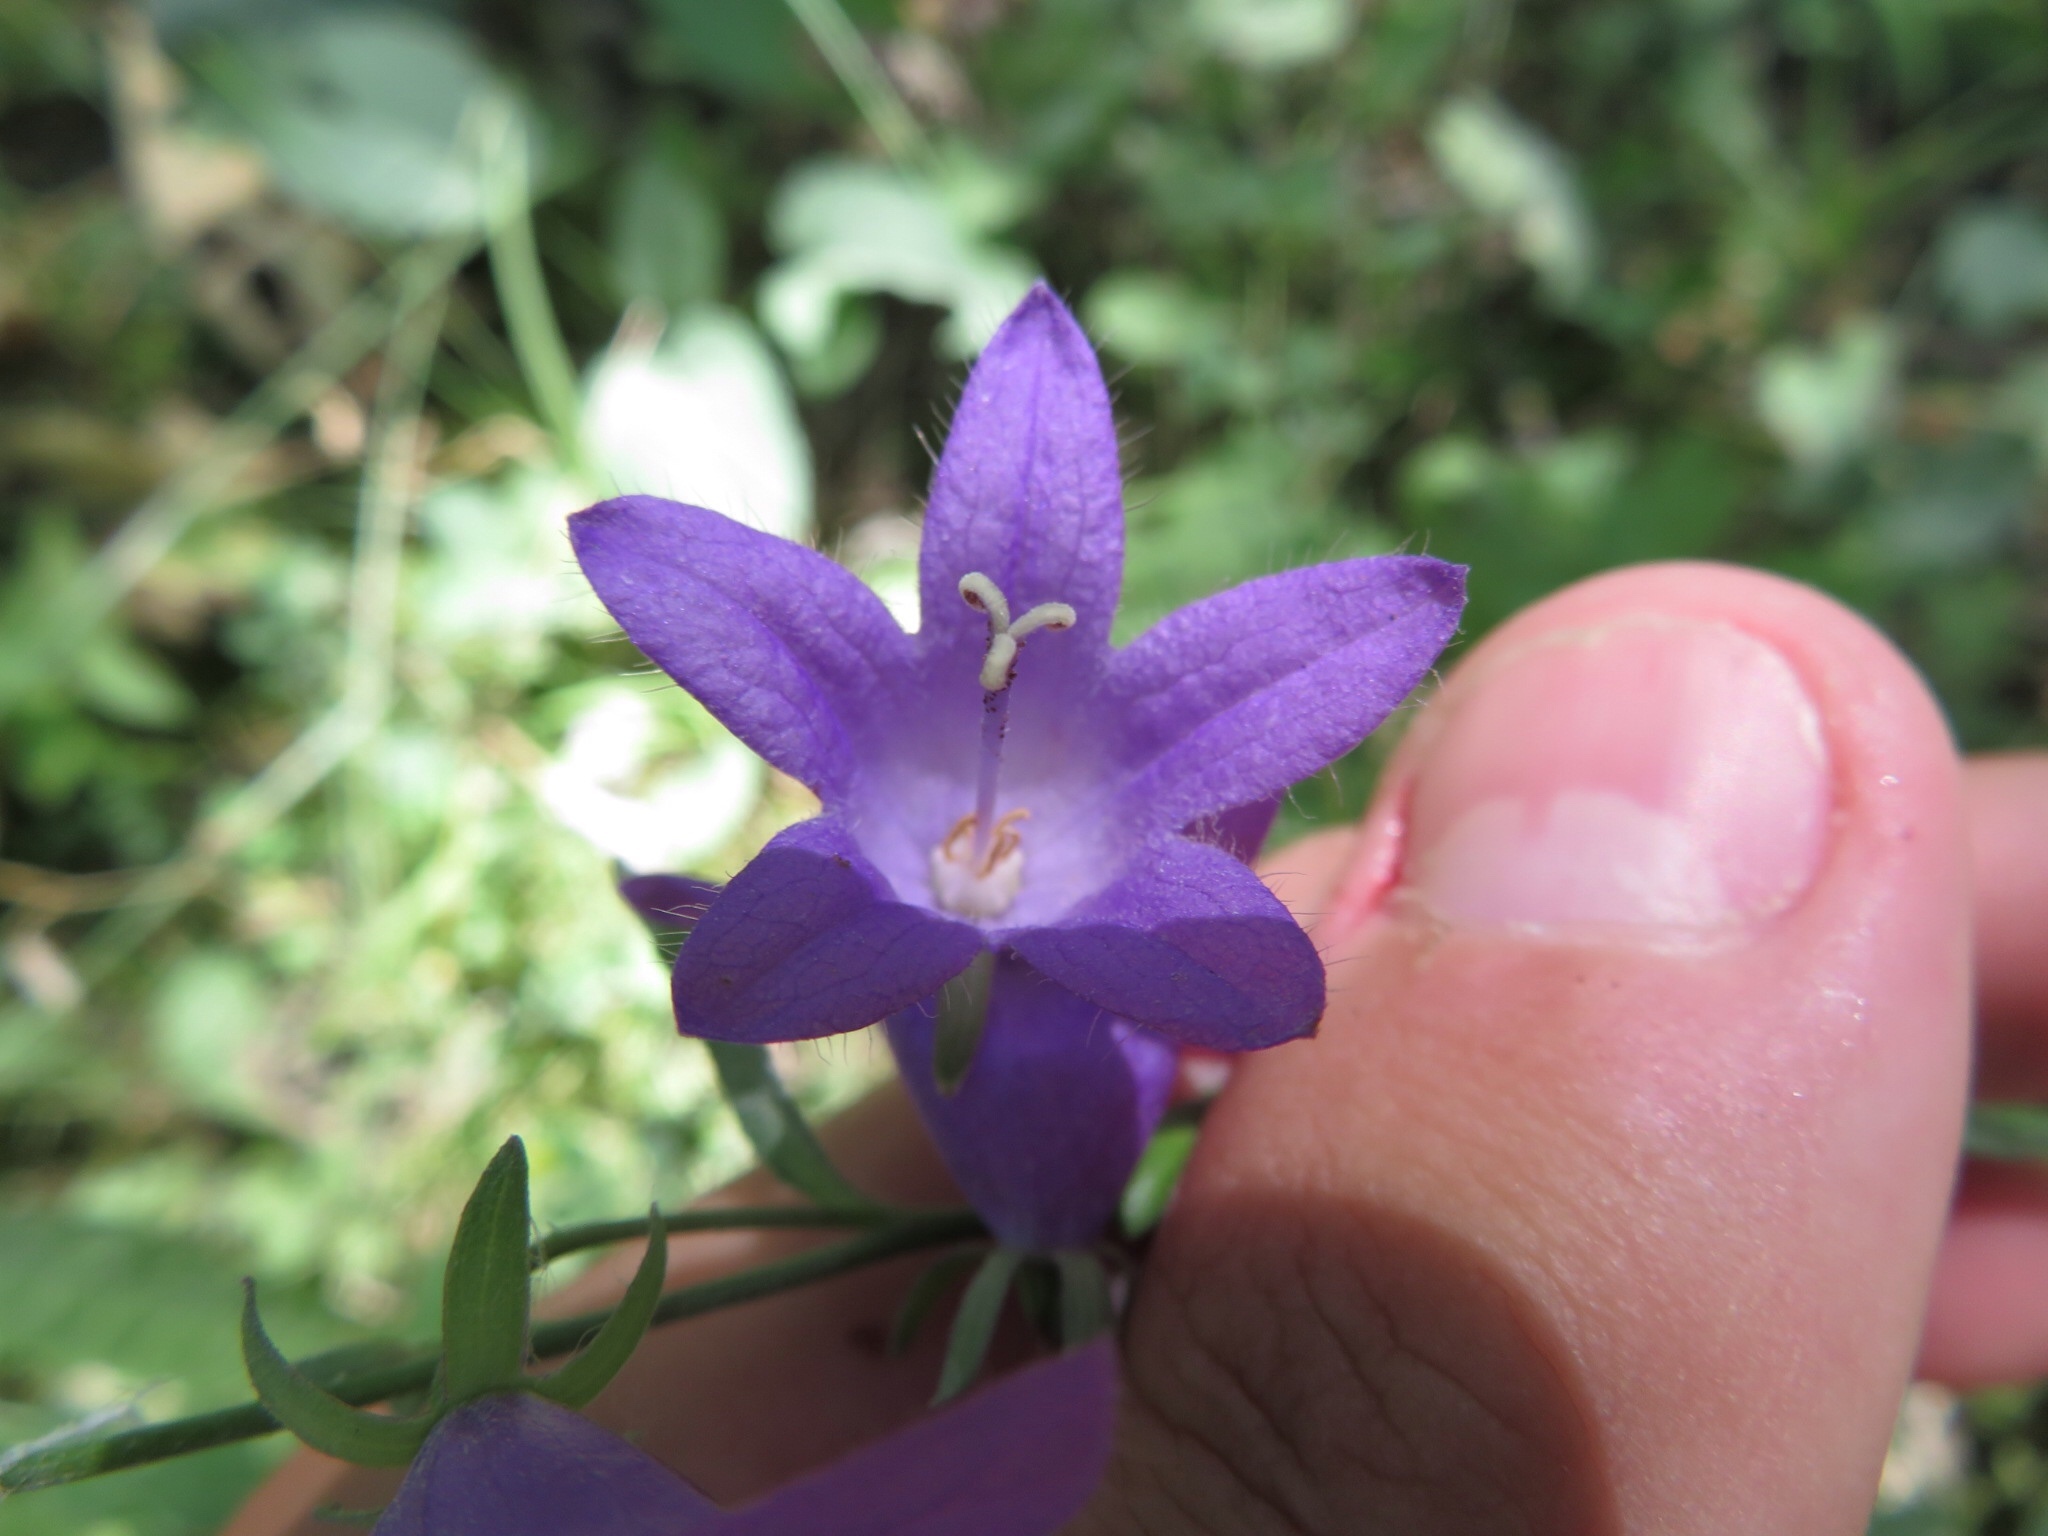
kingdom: Plantae
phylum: Tracheophyta
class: Magnoliopsida
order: Asterales
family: Campanulaceae
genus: Campanulastrum
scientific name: Campanulastrum americanum
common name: American bellflower
